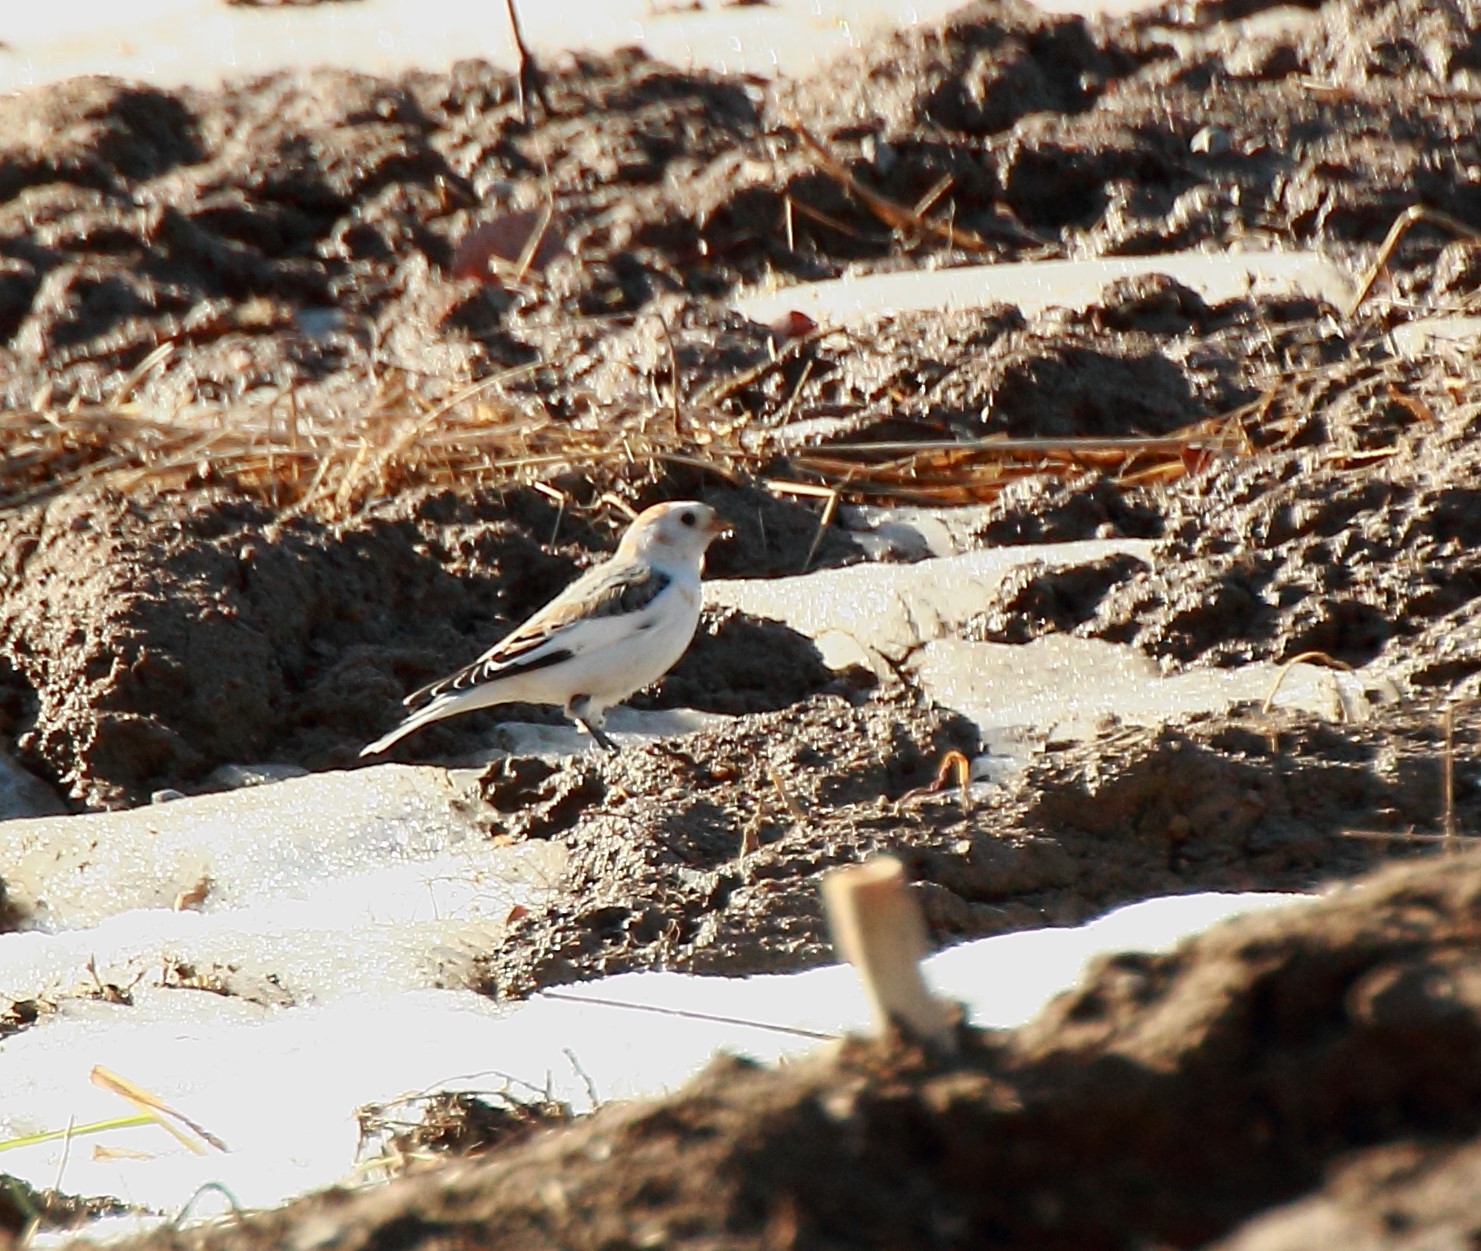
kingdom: Animalia
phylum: Chordata
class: Aves
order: Passeriformes
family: Calcariidae
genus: Plectrophenax
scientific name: Plectrophenax nivalis
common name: Snow bunting
